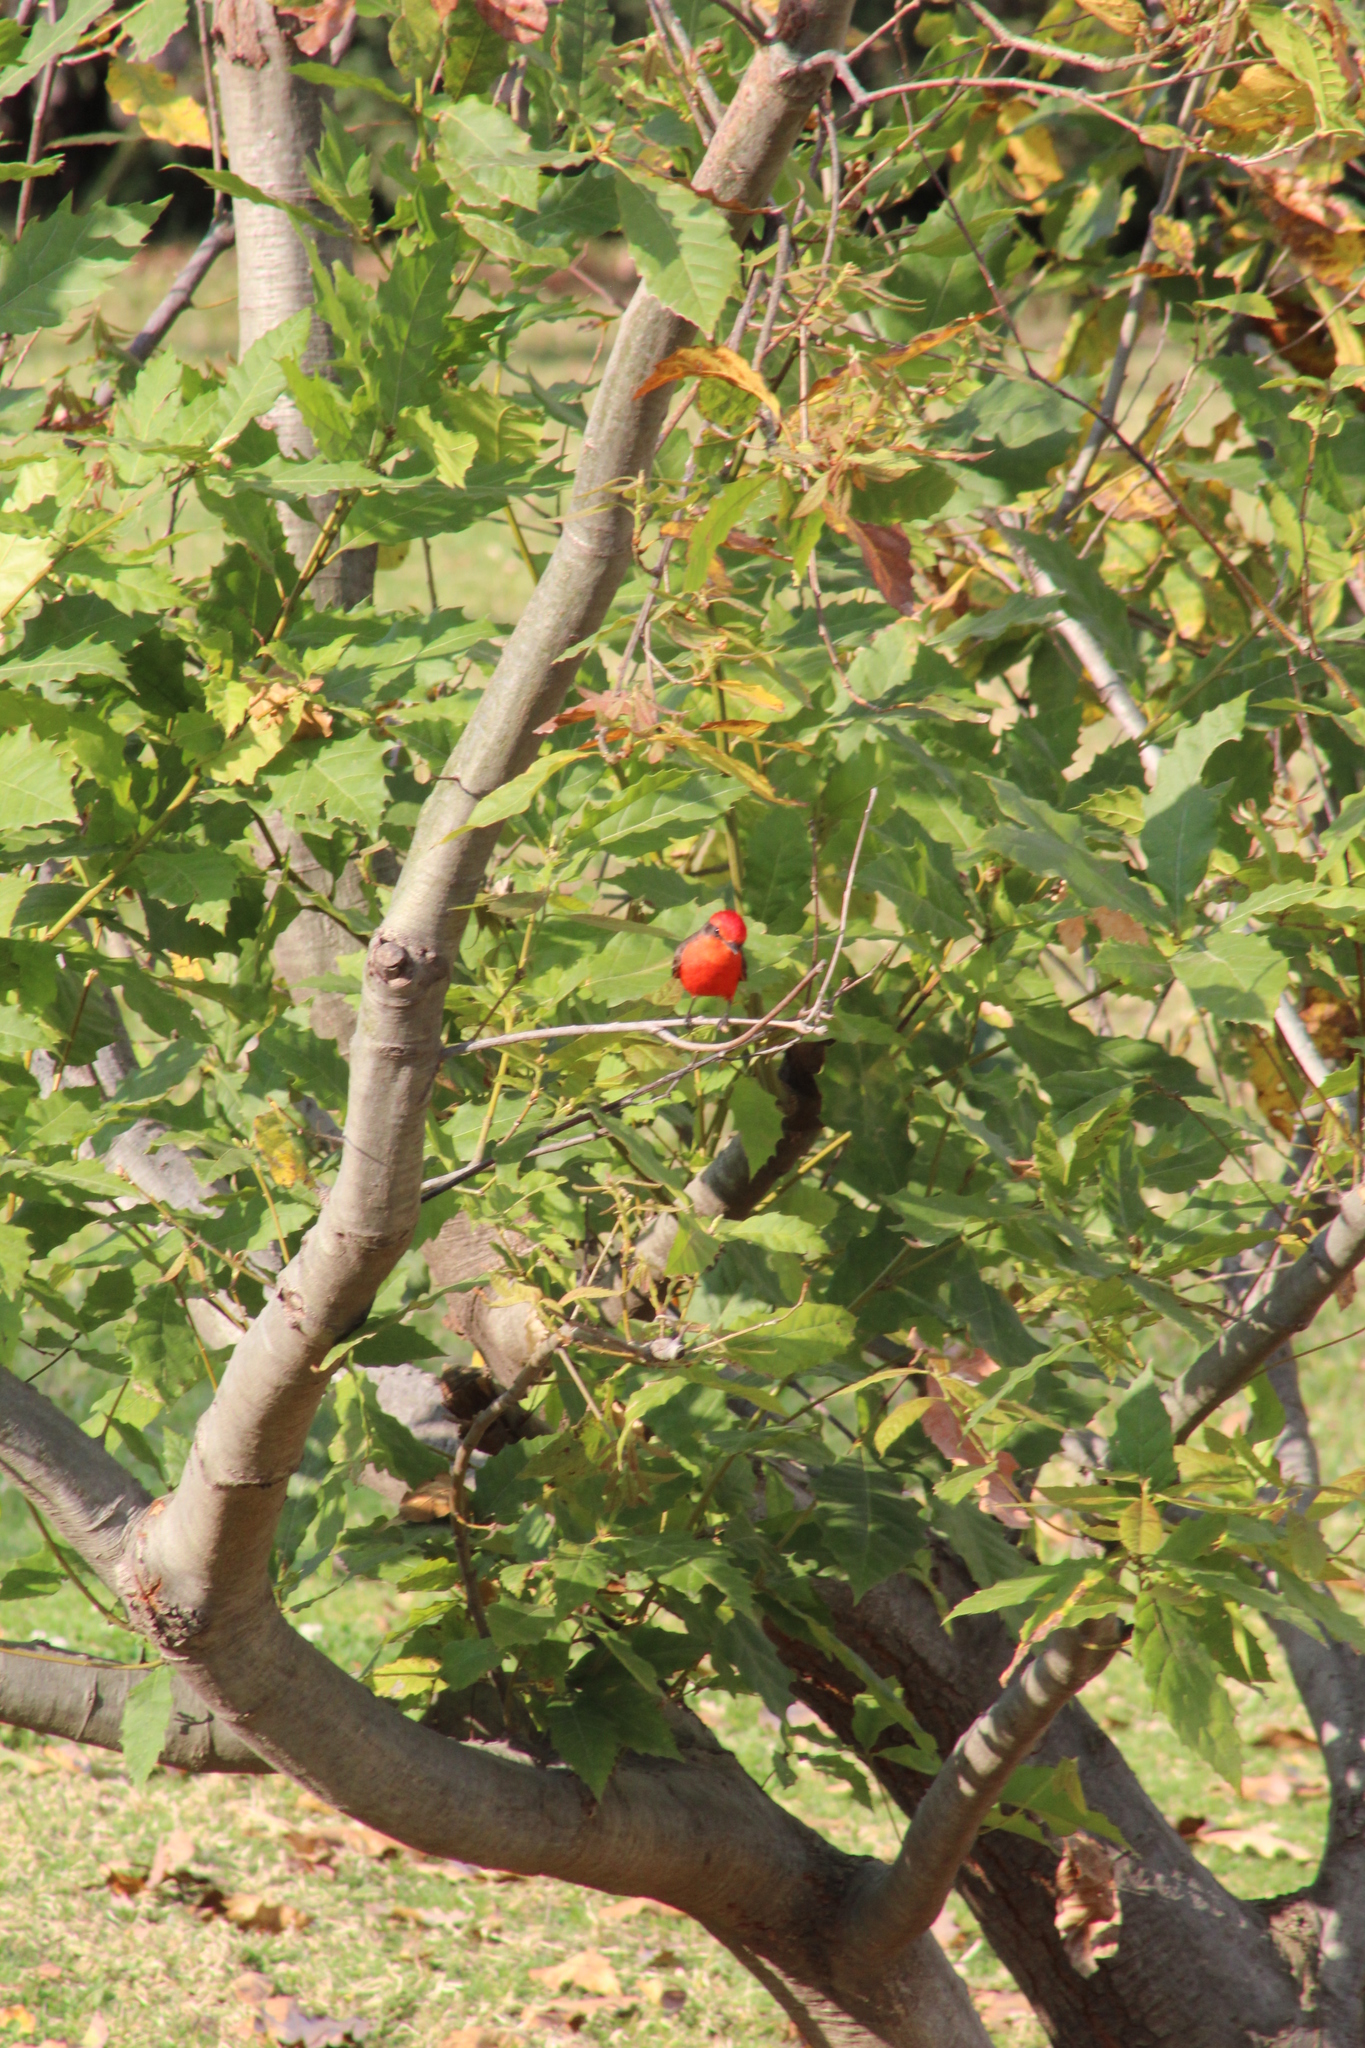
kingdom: Animalia
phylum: Chordata
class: Aves
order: Passeriformes
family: Tyrannidae
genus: Pyrocephalus
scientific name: Pyrocephalus rubinus
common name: Vermilion flycatcher
